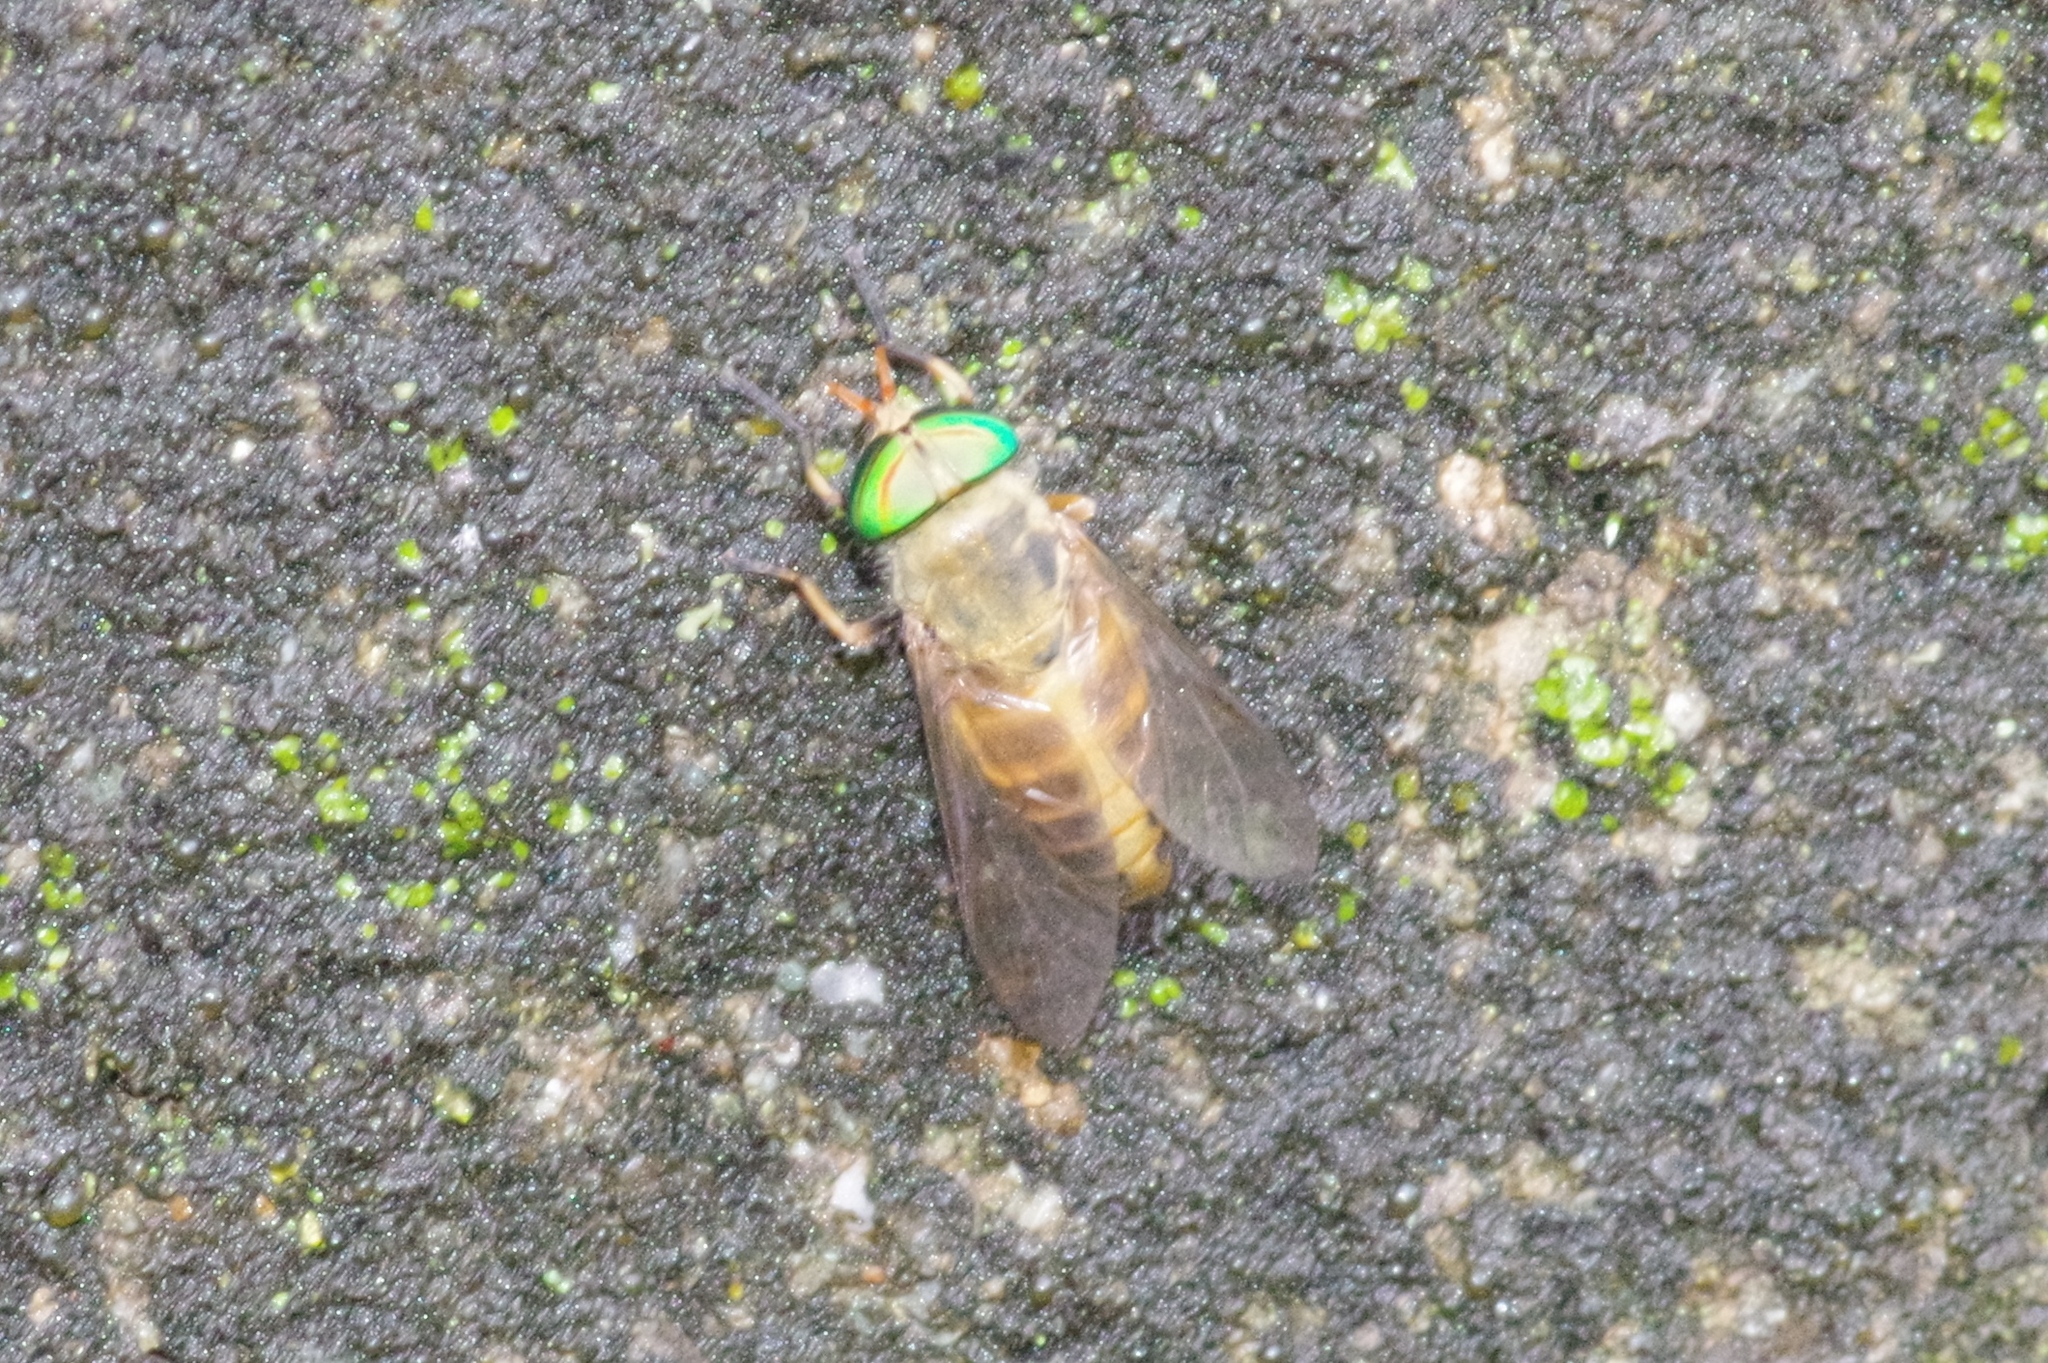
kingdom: Animalia
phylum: Arthropoda
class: Insecta
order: Diptera
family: Tabanidae
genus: Tabanus
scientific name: Tabanus sapporoensis
